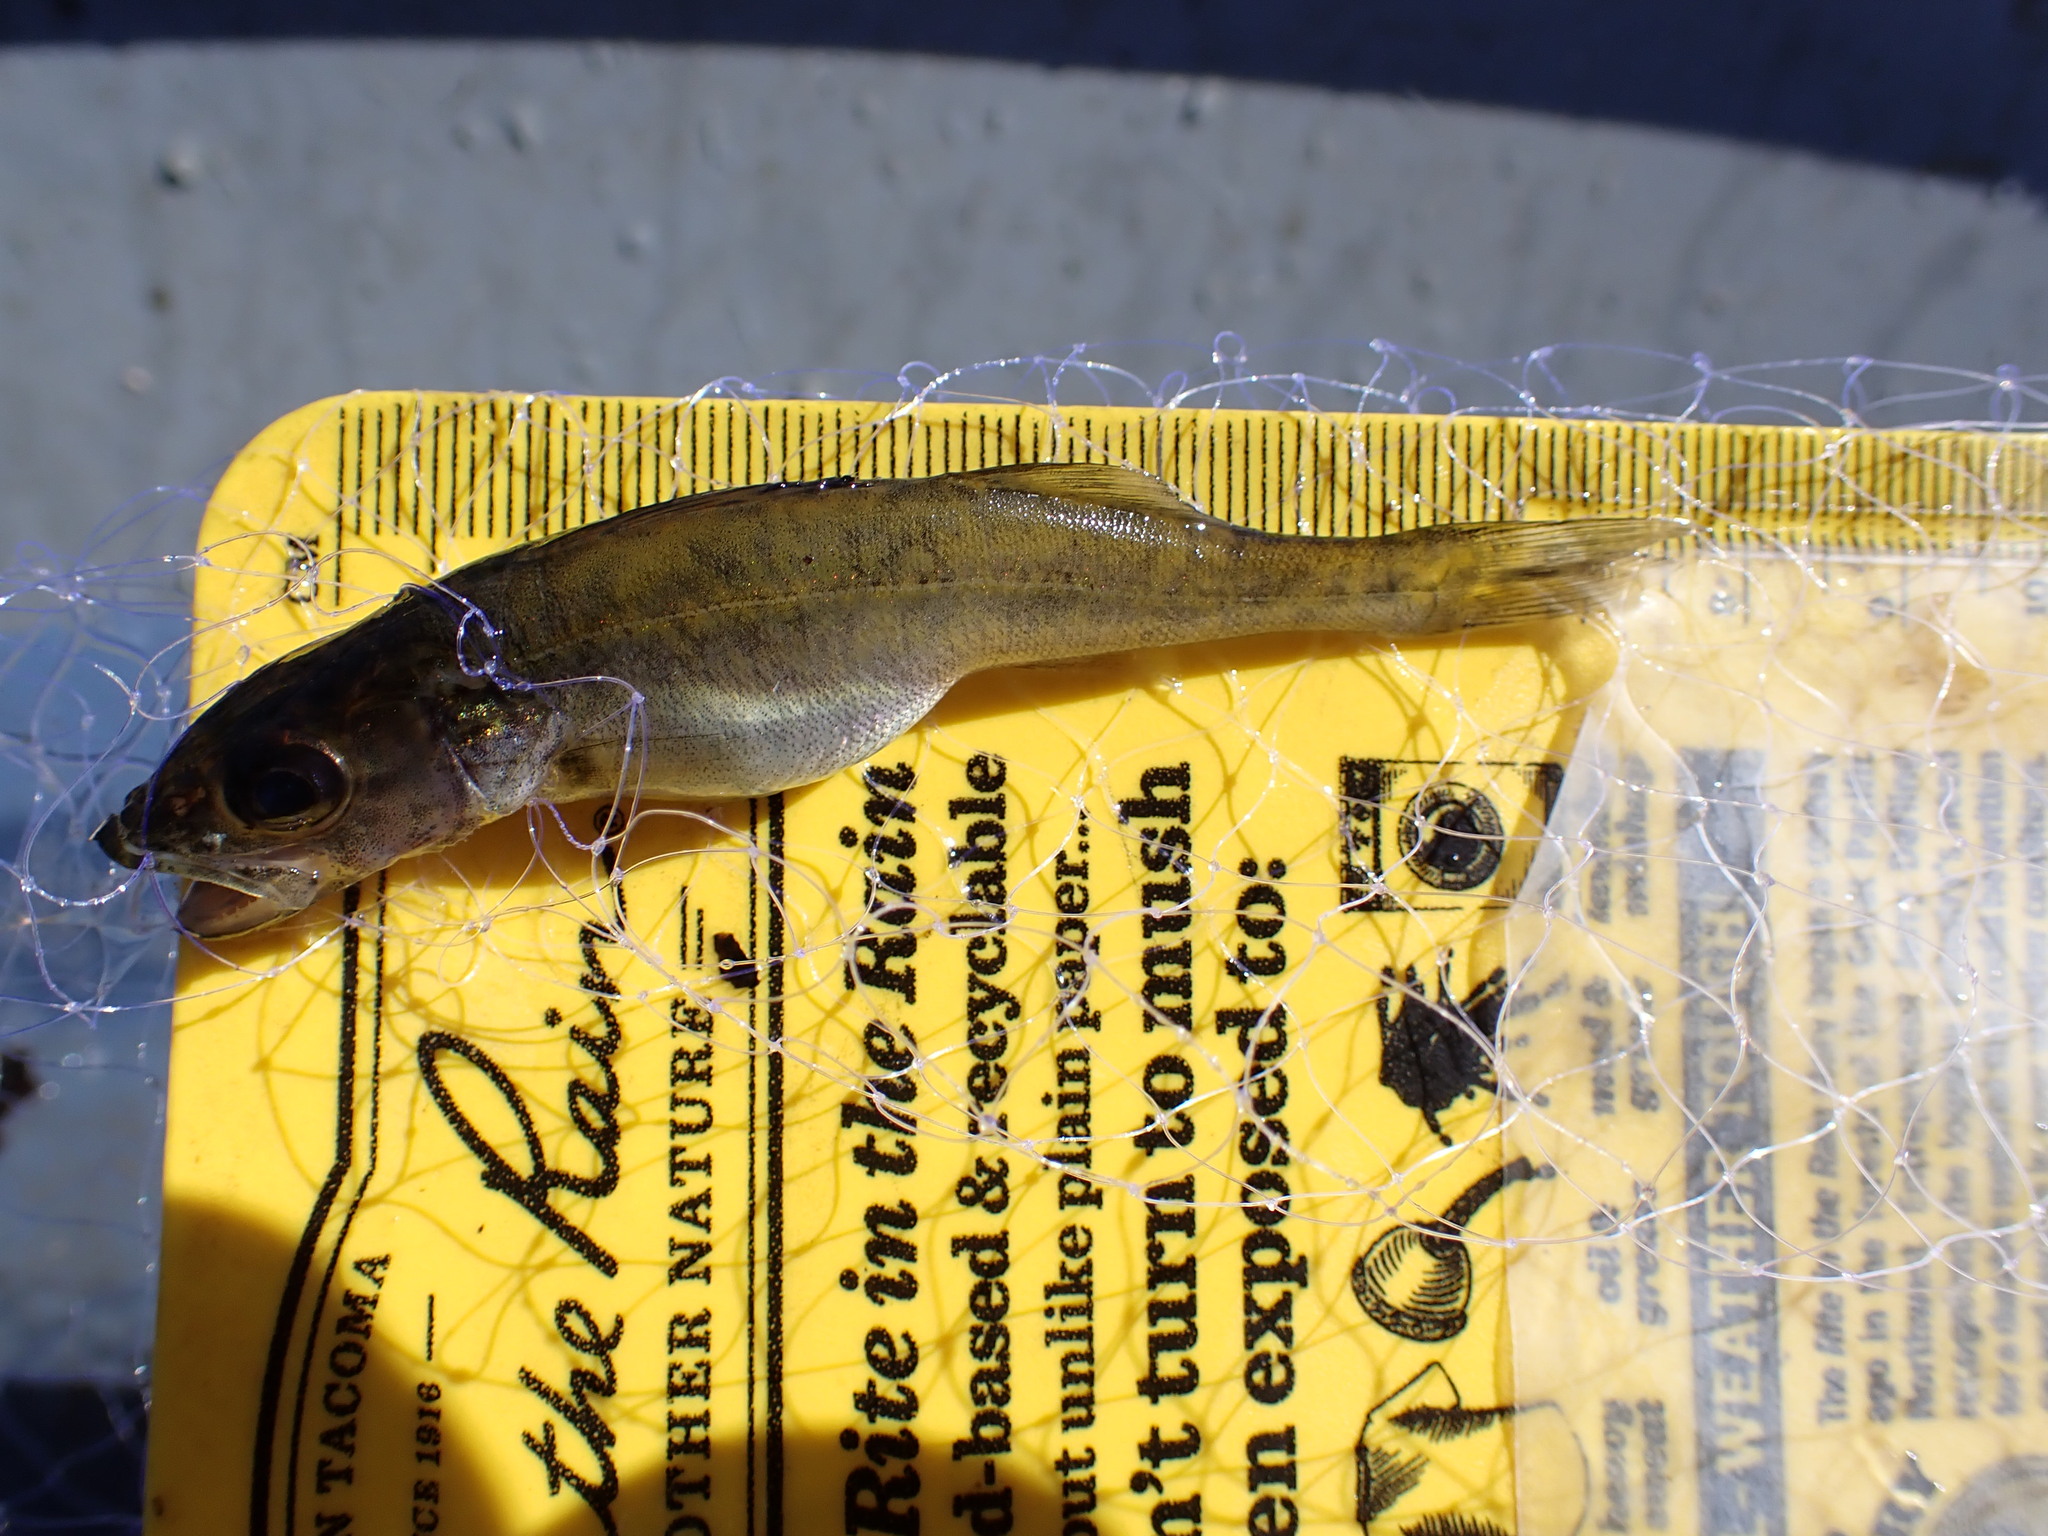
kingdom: Animalia
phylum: Chordata
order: Perciformes
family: Percidae
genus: Sander
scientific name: Sander vitreus
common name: Walleye
